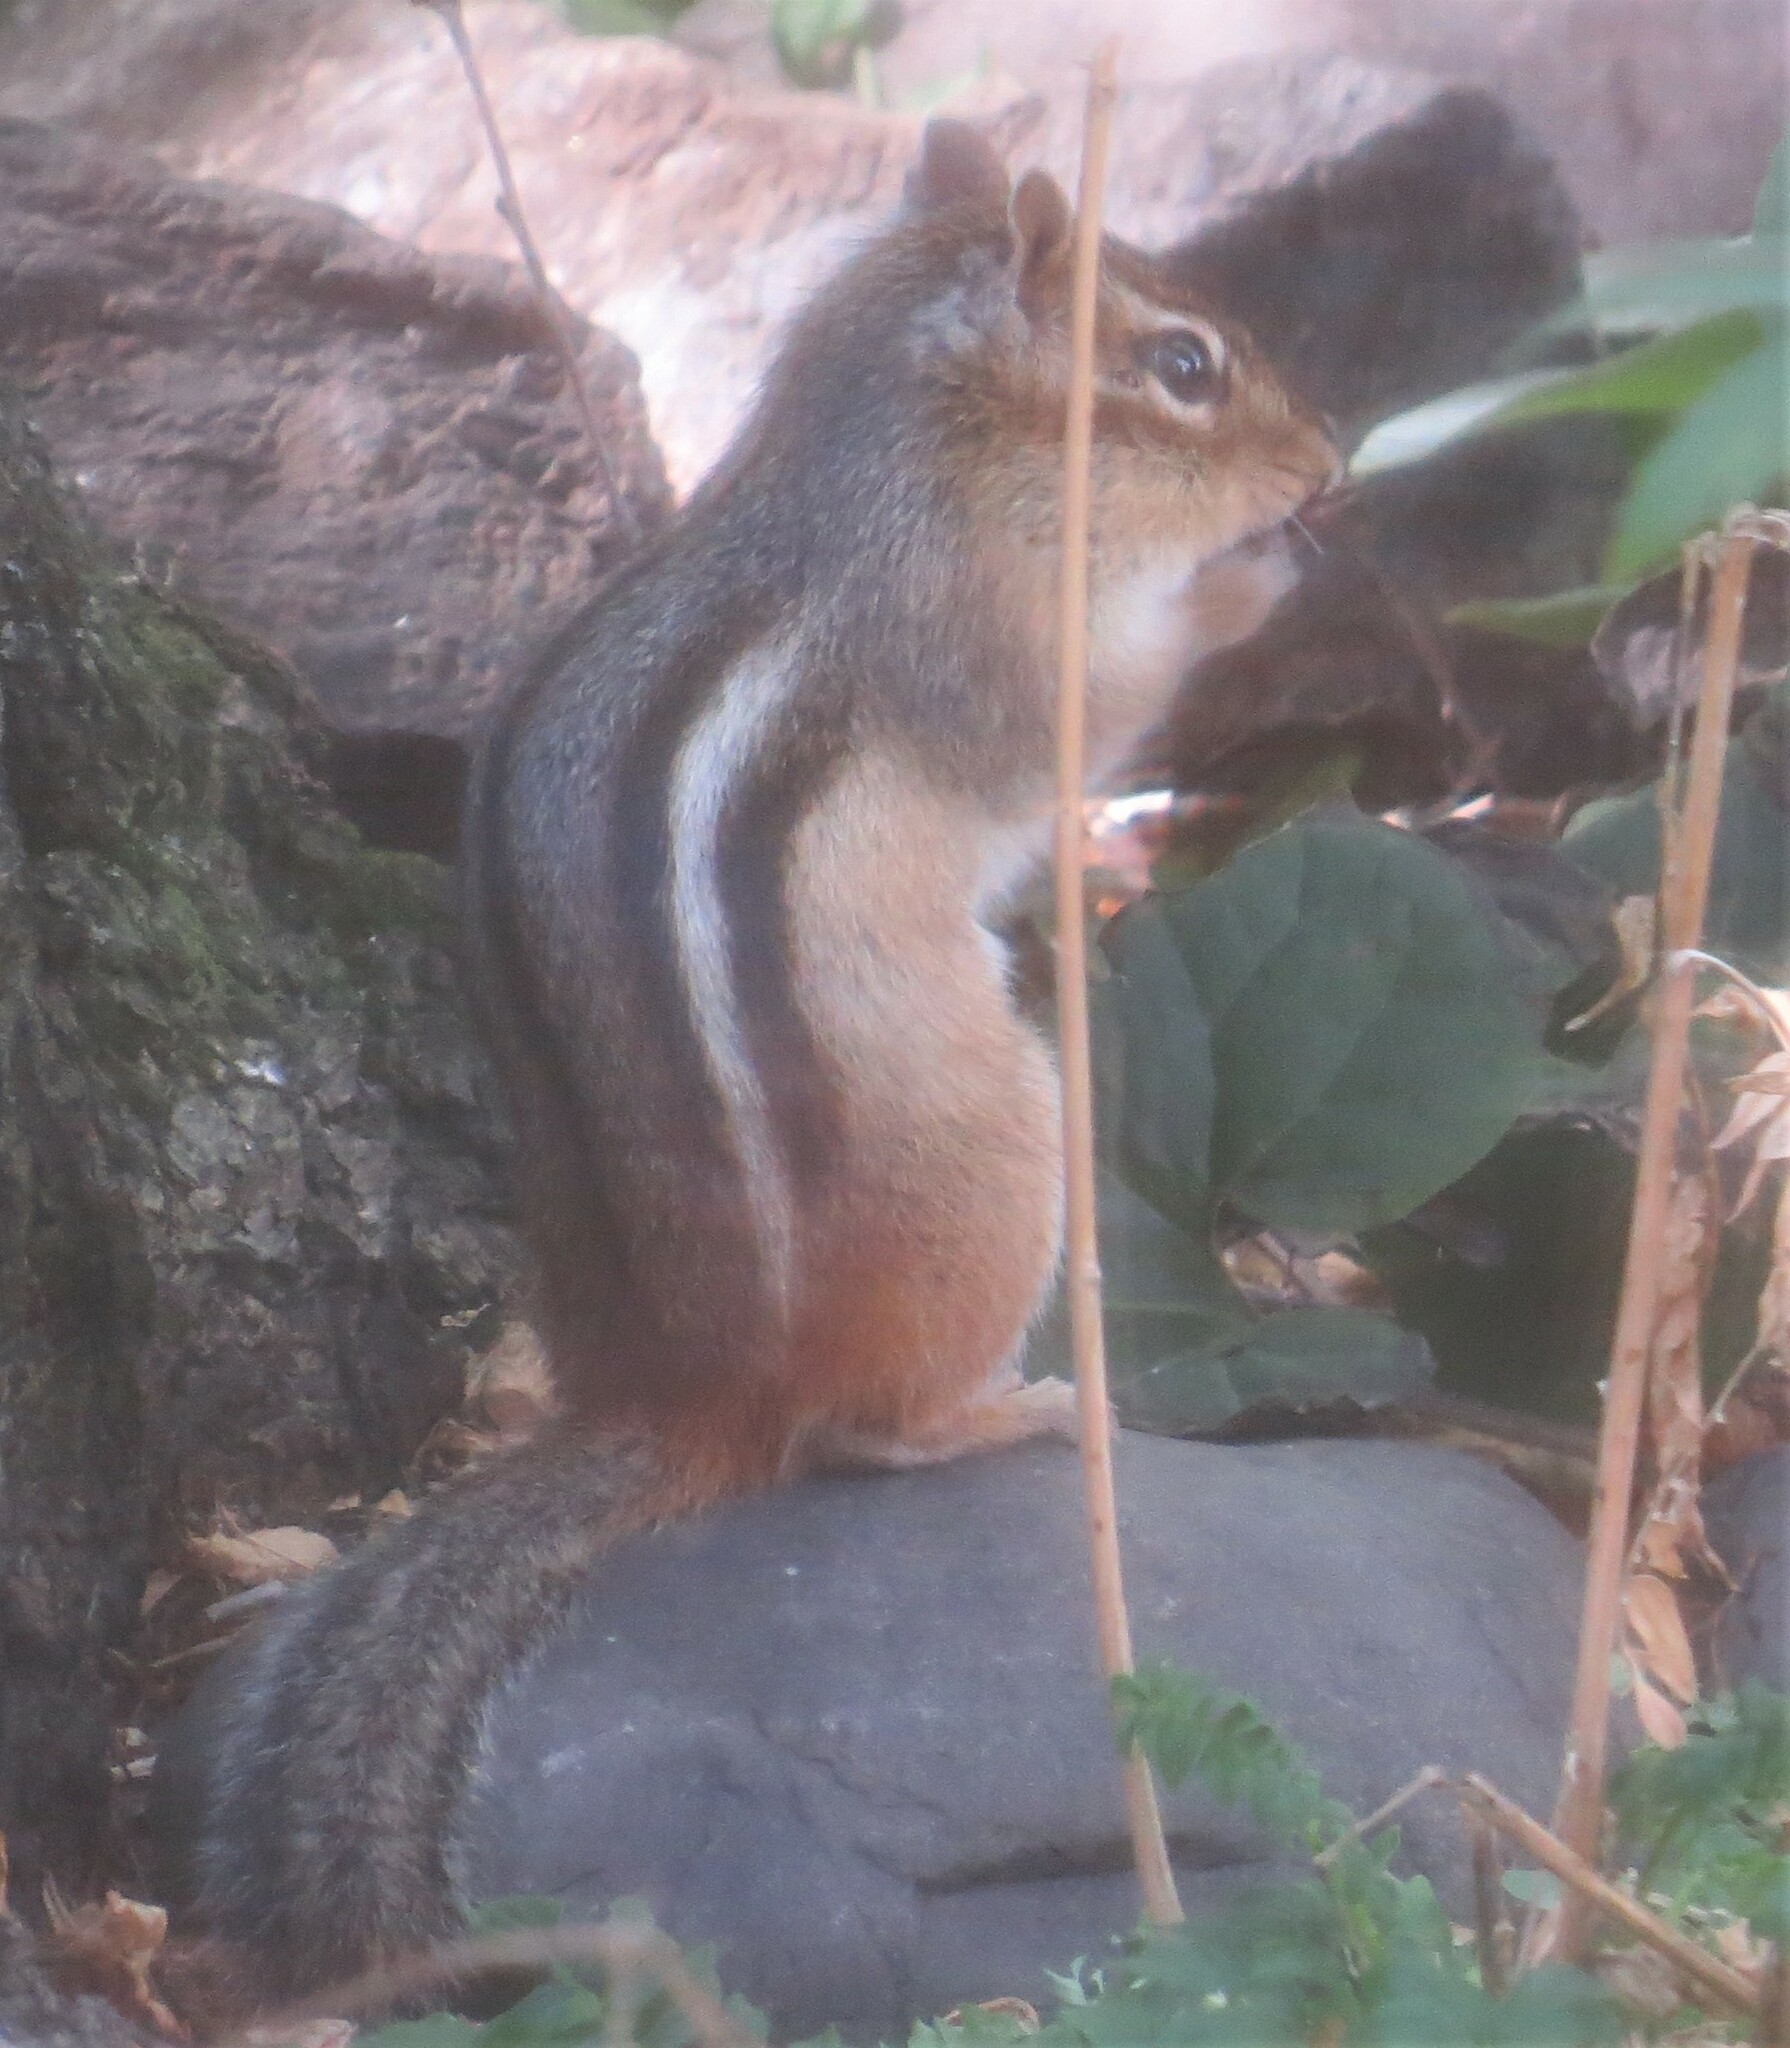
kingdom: Animalia
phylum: Chordata
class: Mammalia
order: Rodentia
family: Sciuridae
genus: Tamias
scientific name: Tamias striatus
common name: Eastern chipmunk
